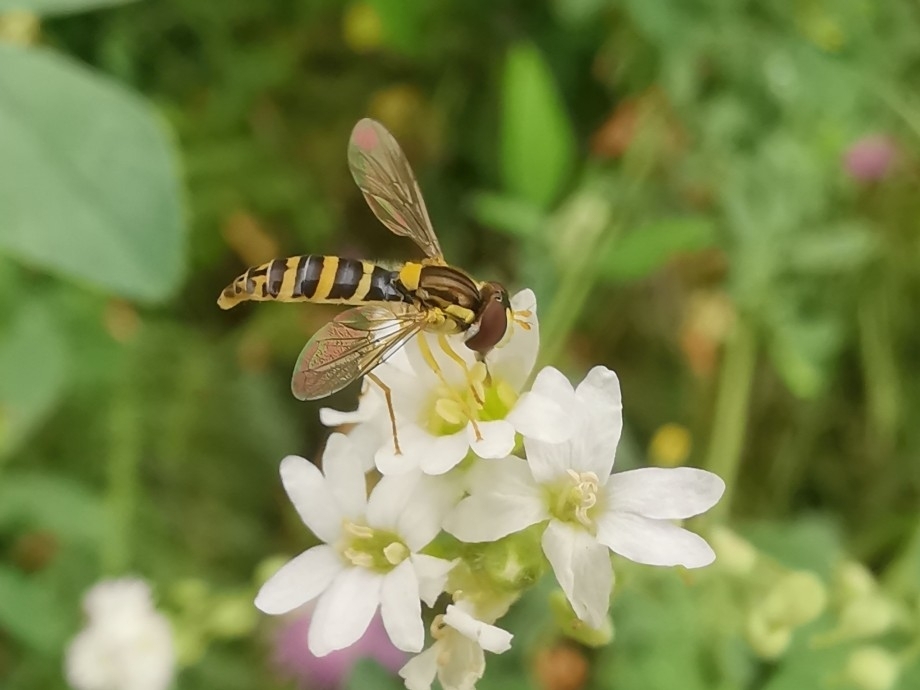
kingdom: Animalia
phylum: Arthropoda
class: Insecta
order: Diptera
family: Syrphidae
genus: Sphaerophoria
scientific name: Sphaerophoria
